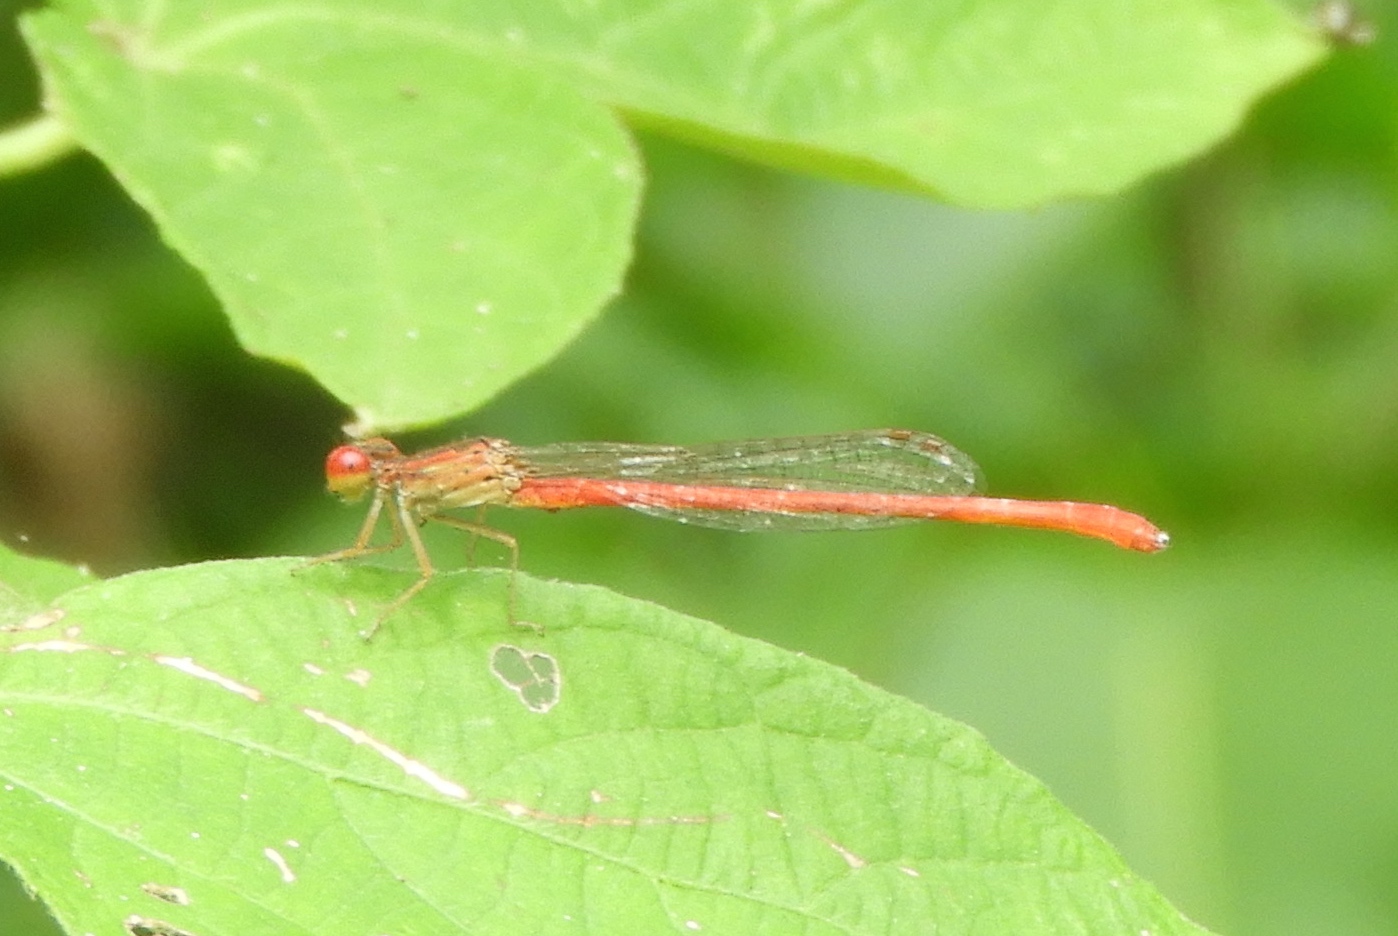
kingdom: Animalia
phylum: Arthropoda
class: Insecta
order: Odonata
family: Coenagrionidae
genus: Telebasis
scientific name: Telebasis salva
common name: Desert firetail
